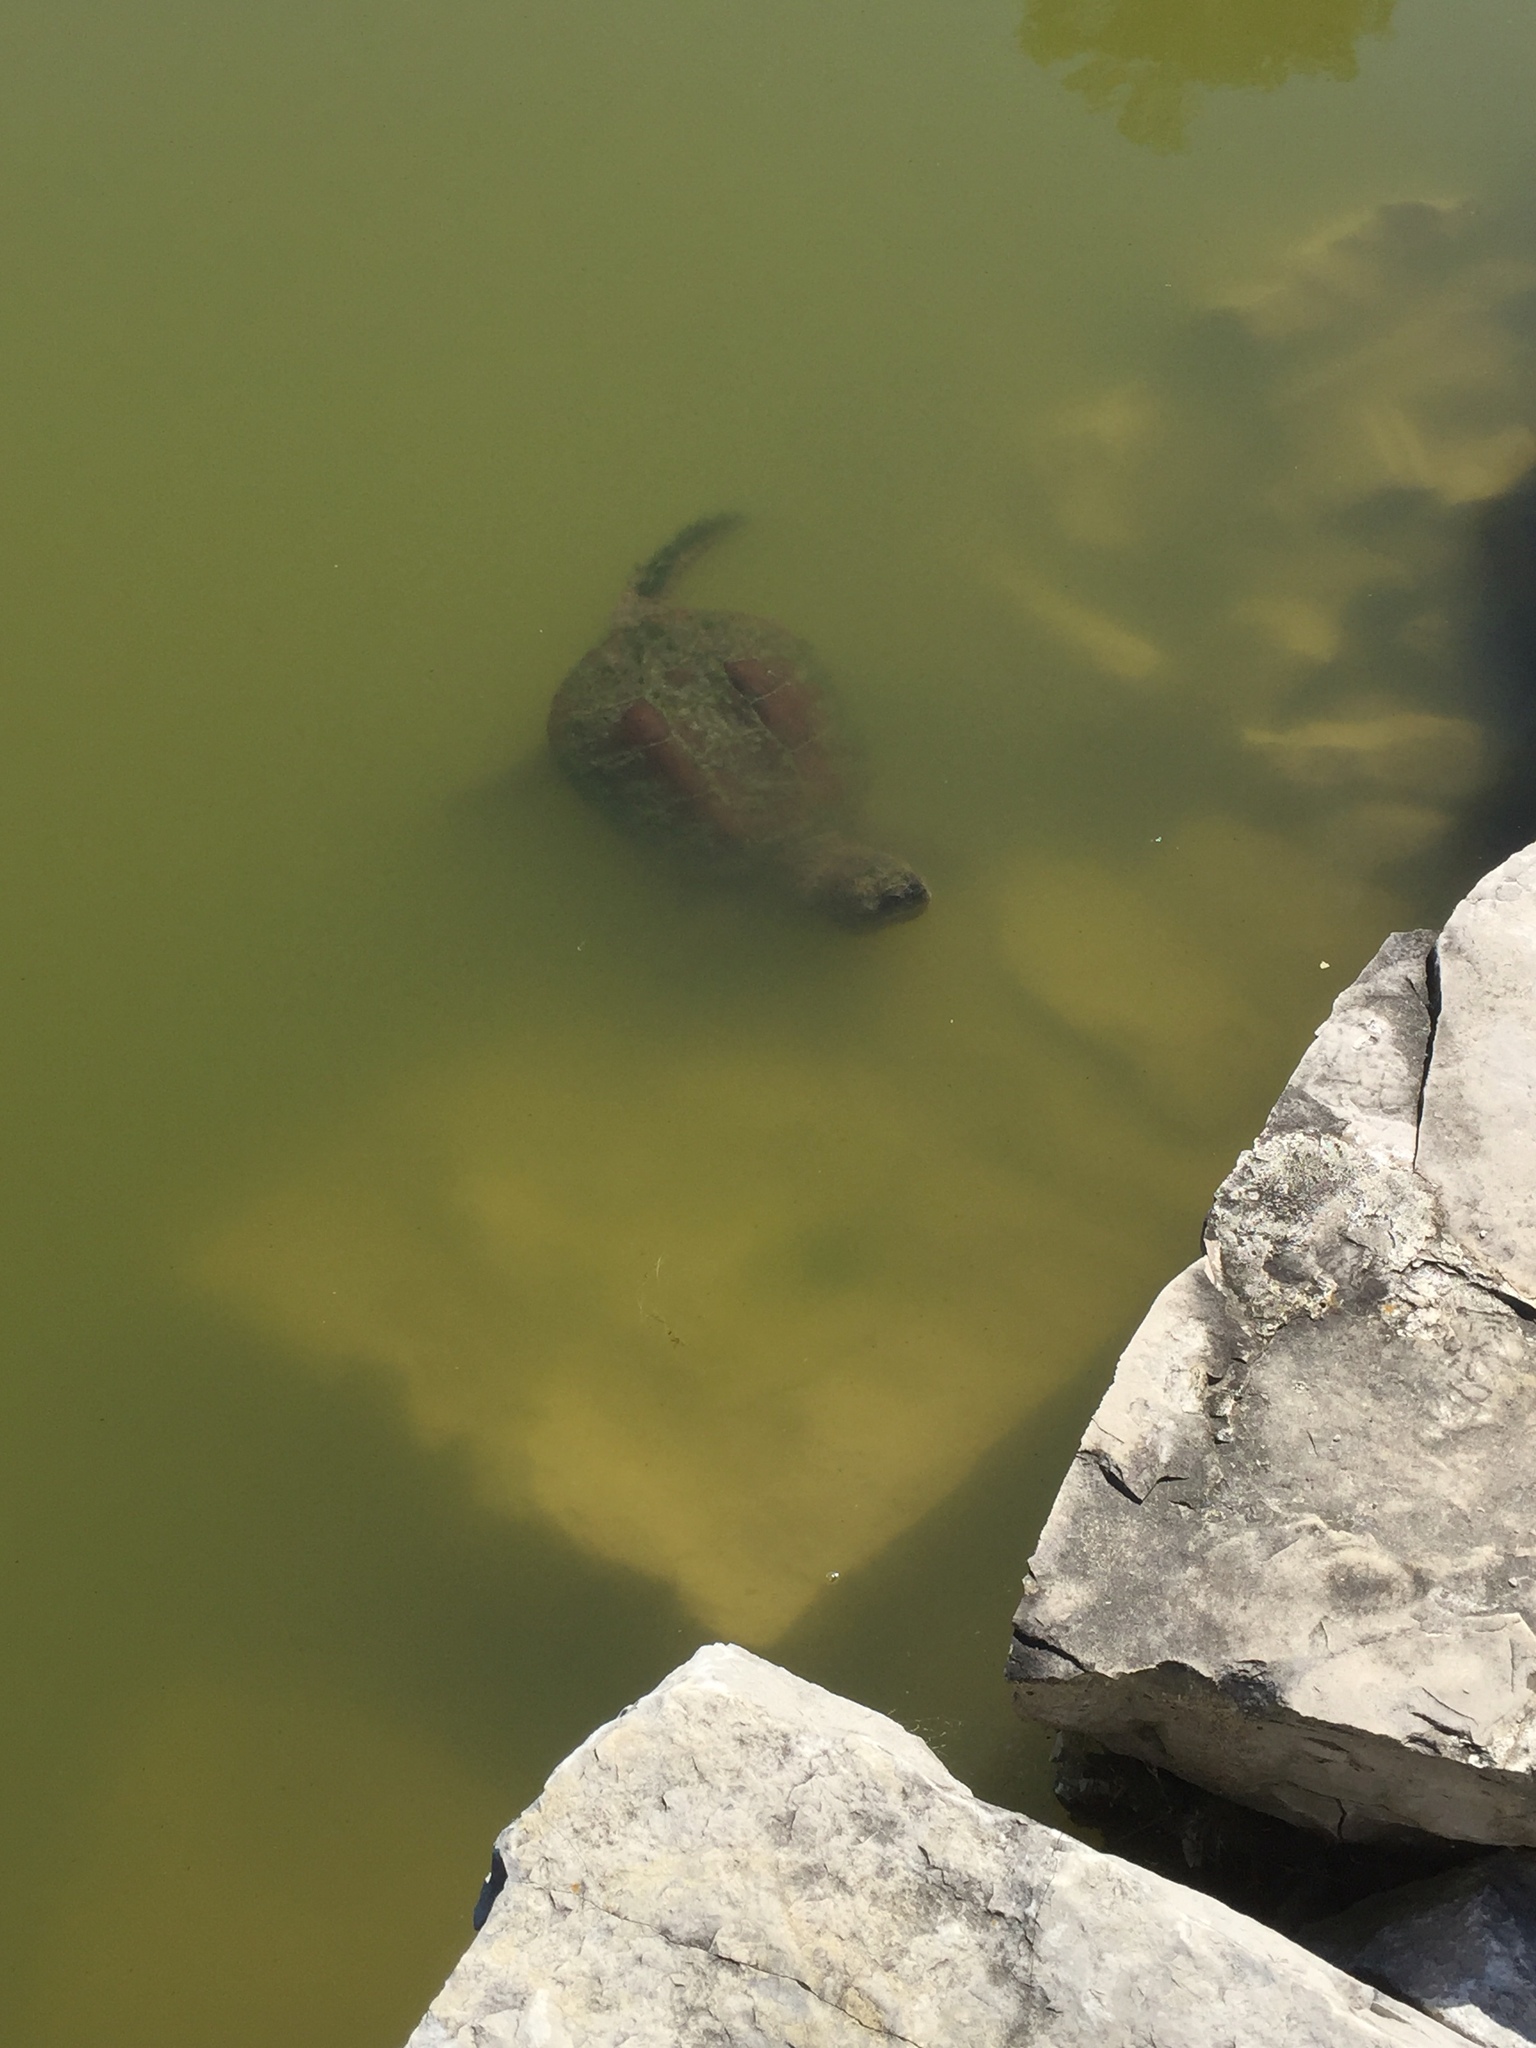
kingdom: Animalia
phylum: Chordata
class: Testudines
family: Chelydridae
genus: Chelydra
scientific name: Chelydra serpentina
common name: Common snapping turtle
